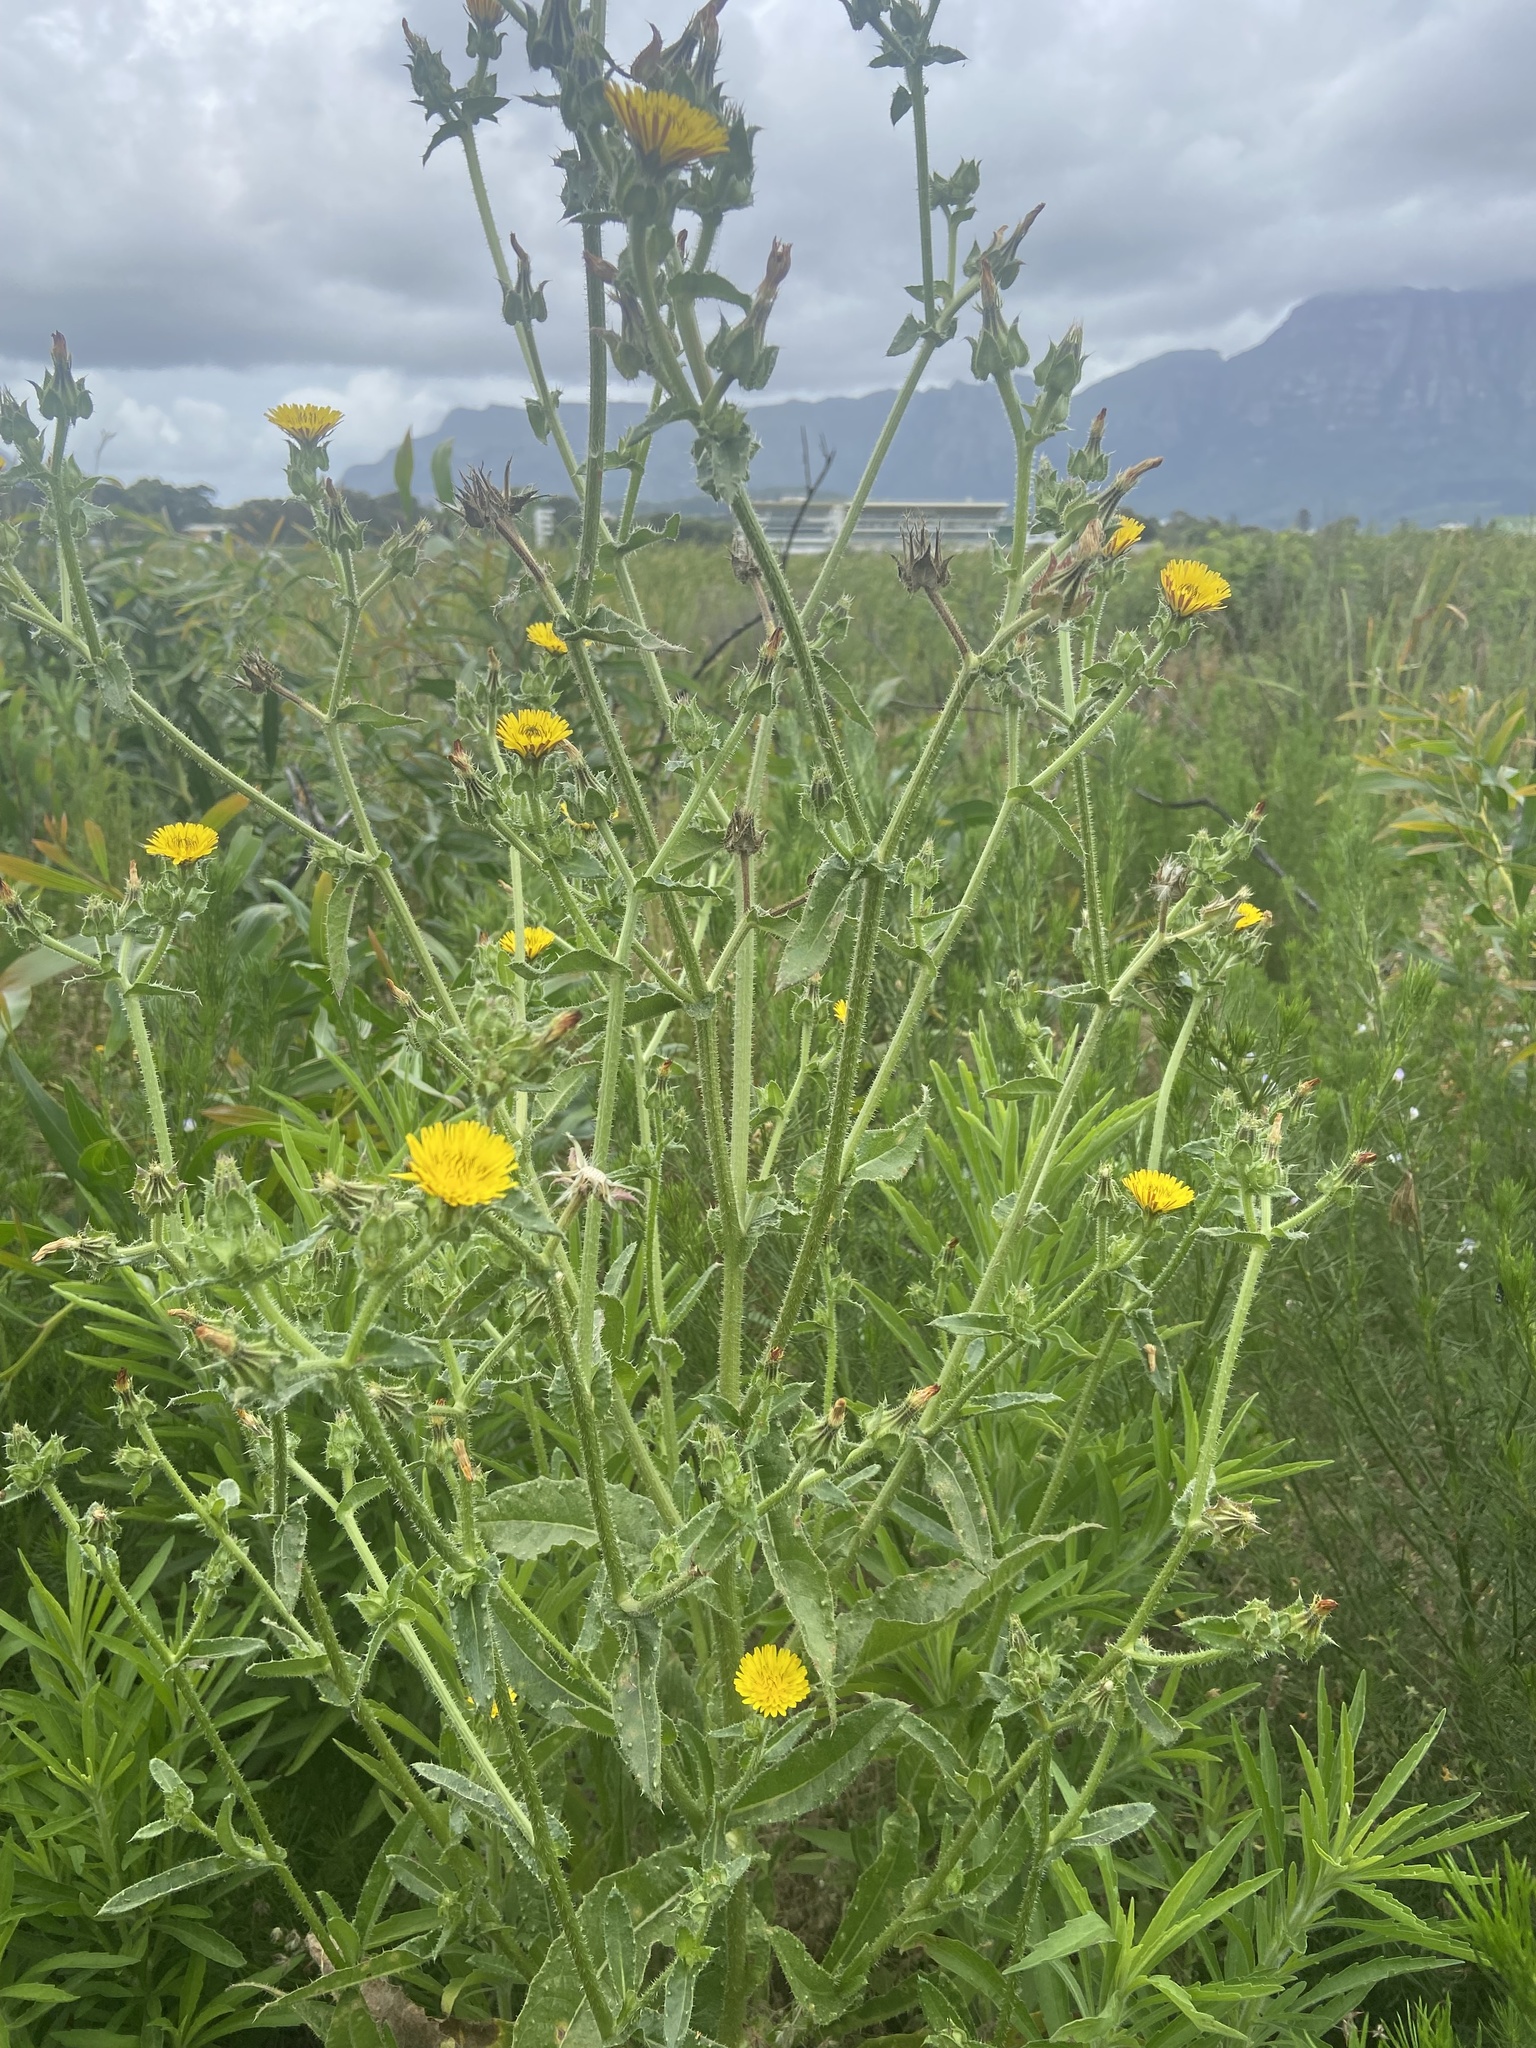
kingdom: Plantae
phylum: Tracheophyta
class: Magnoliopsida
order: Asterales
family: Asteraceae
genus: Helminthotheca
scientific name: Helminthotheca echioides
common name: Ox-tongue
